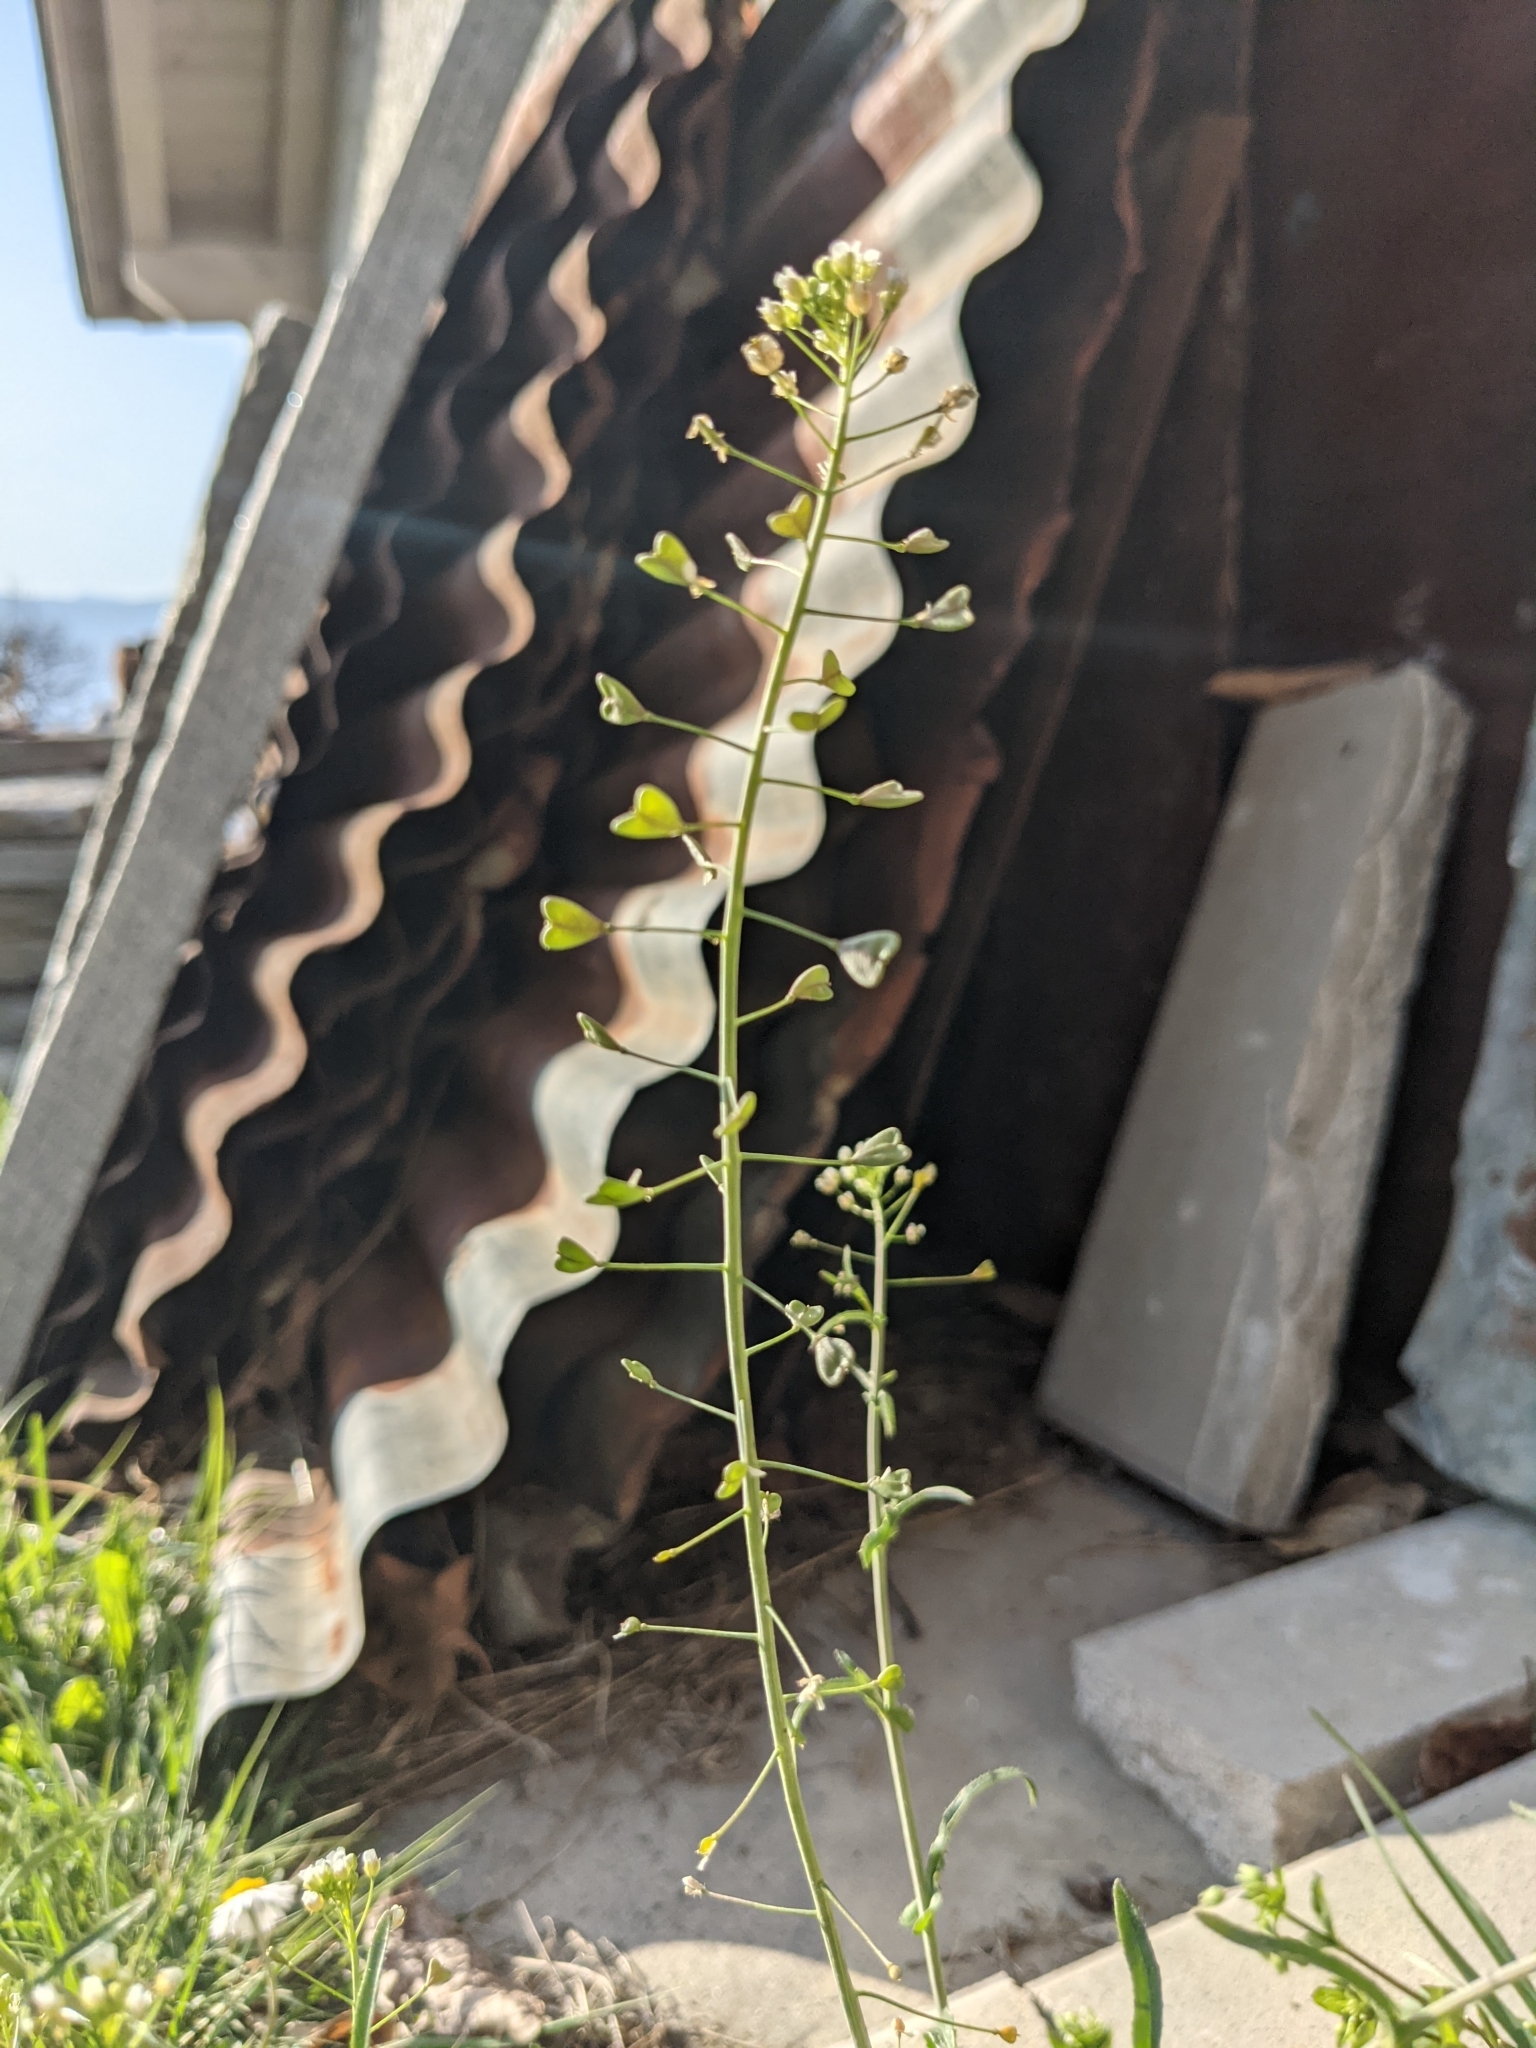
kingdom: Plantae
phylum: Tracheophyta
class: Magnoliopsida
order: Brassicales
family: Brassicaceae
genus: Capsella
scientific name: Capsella bursa-pastoris
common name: Shepherd's purse
